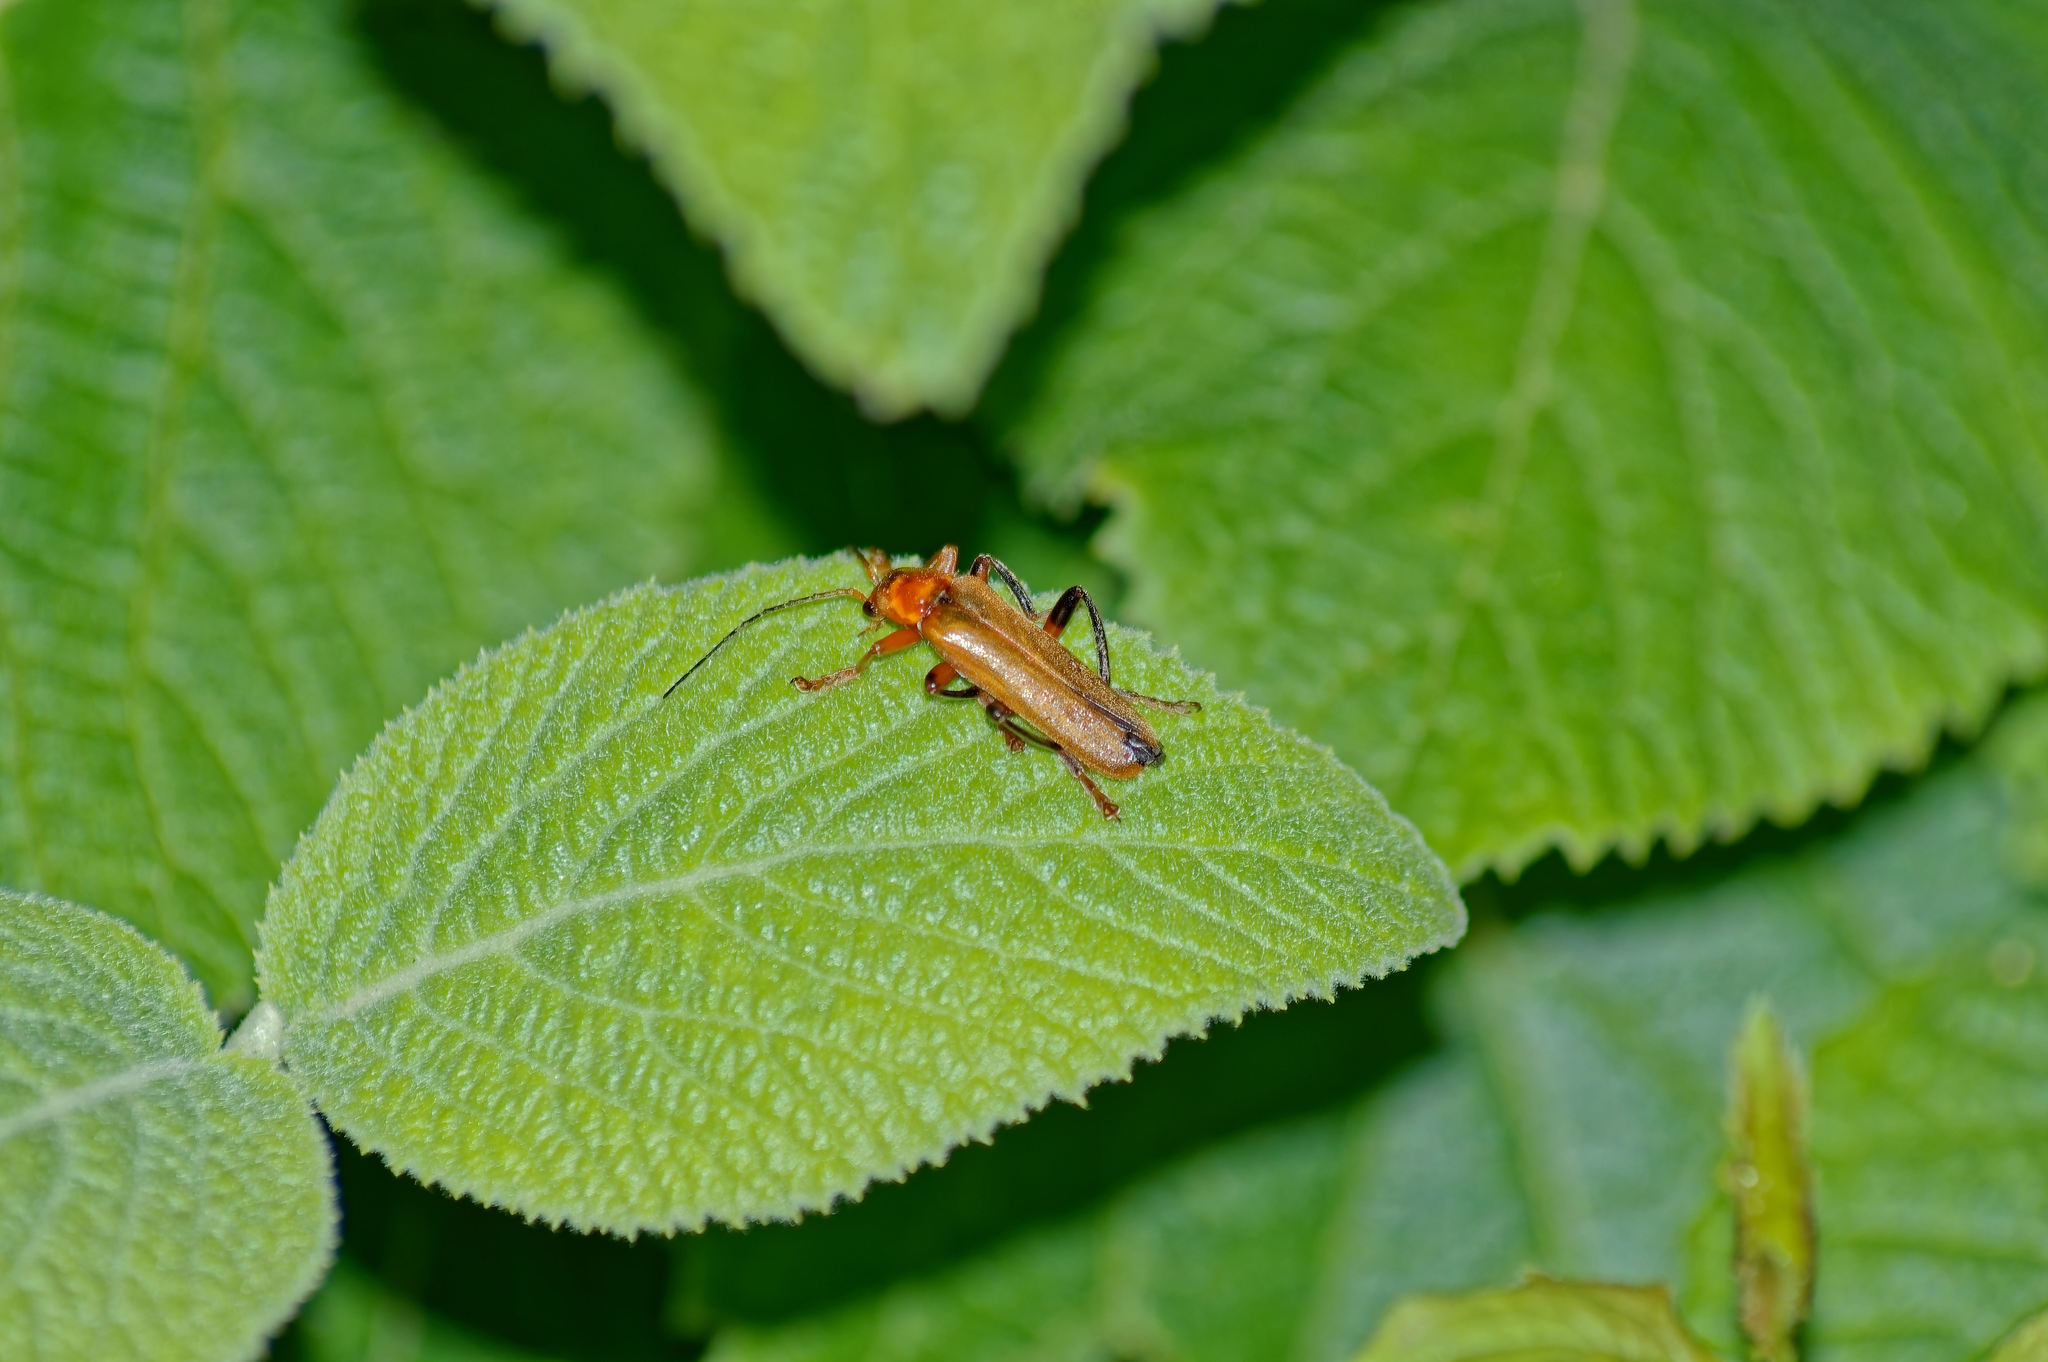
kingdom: Animalia
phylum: Arthropoda
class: Insecta
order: Coleoptera
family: Oedemeridae
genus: Oedemera
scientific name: Oedemera podagrariae
